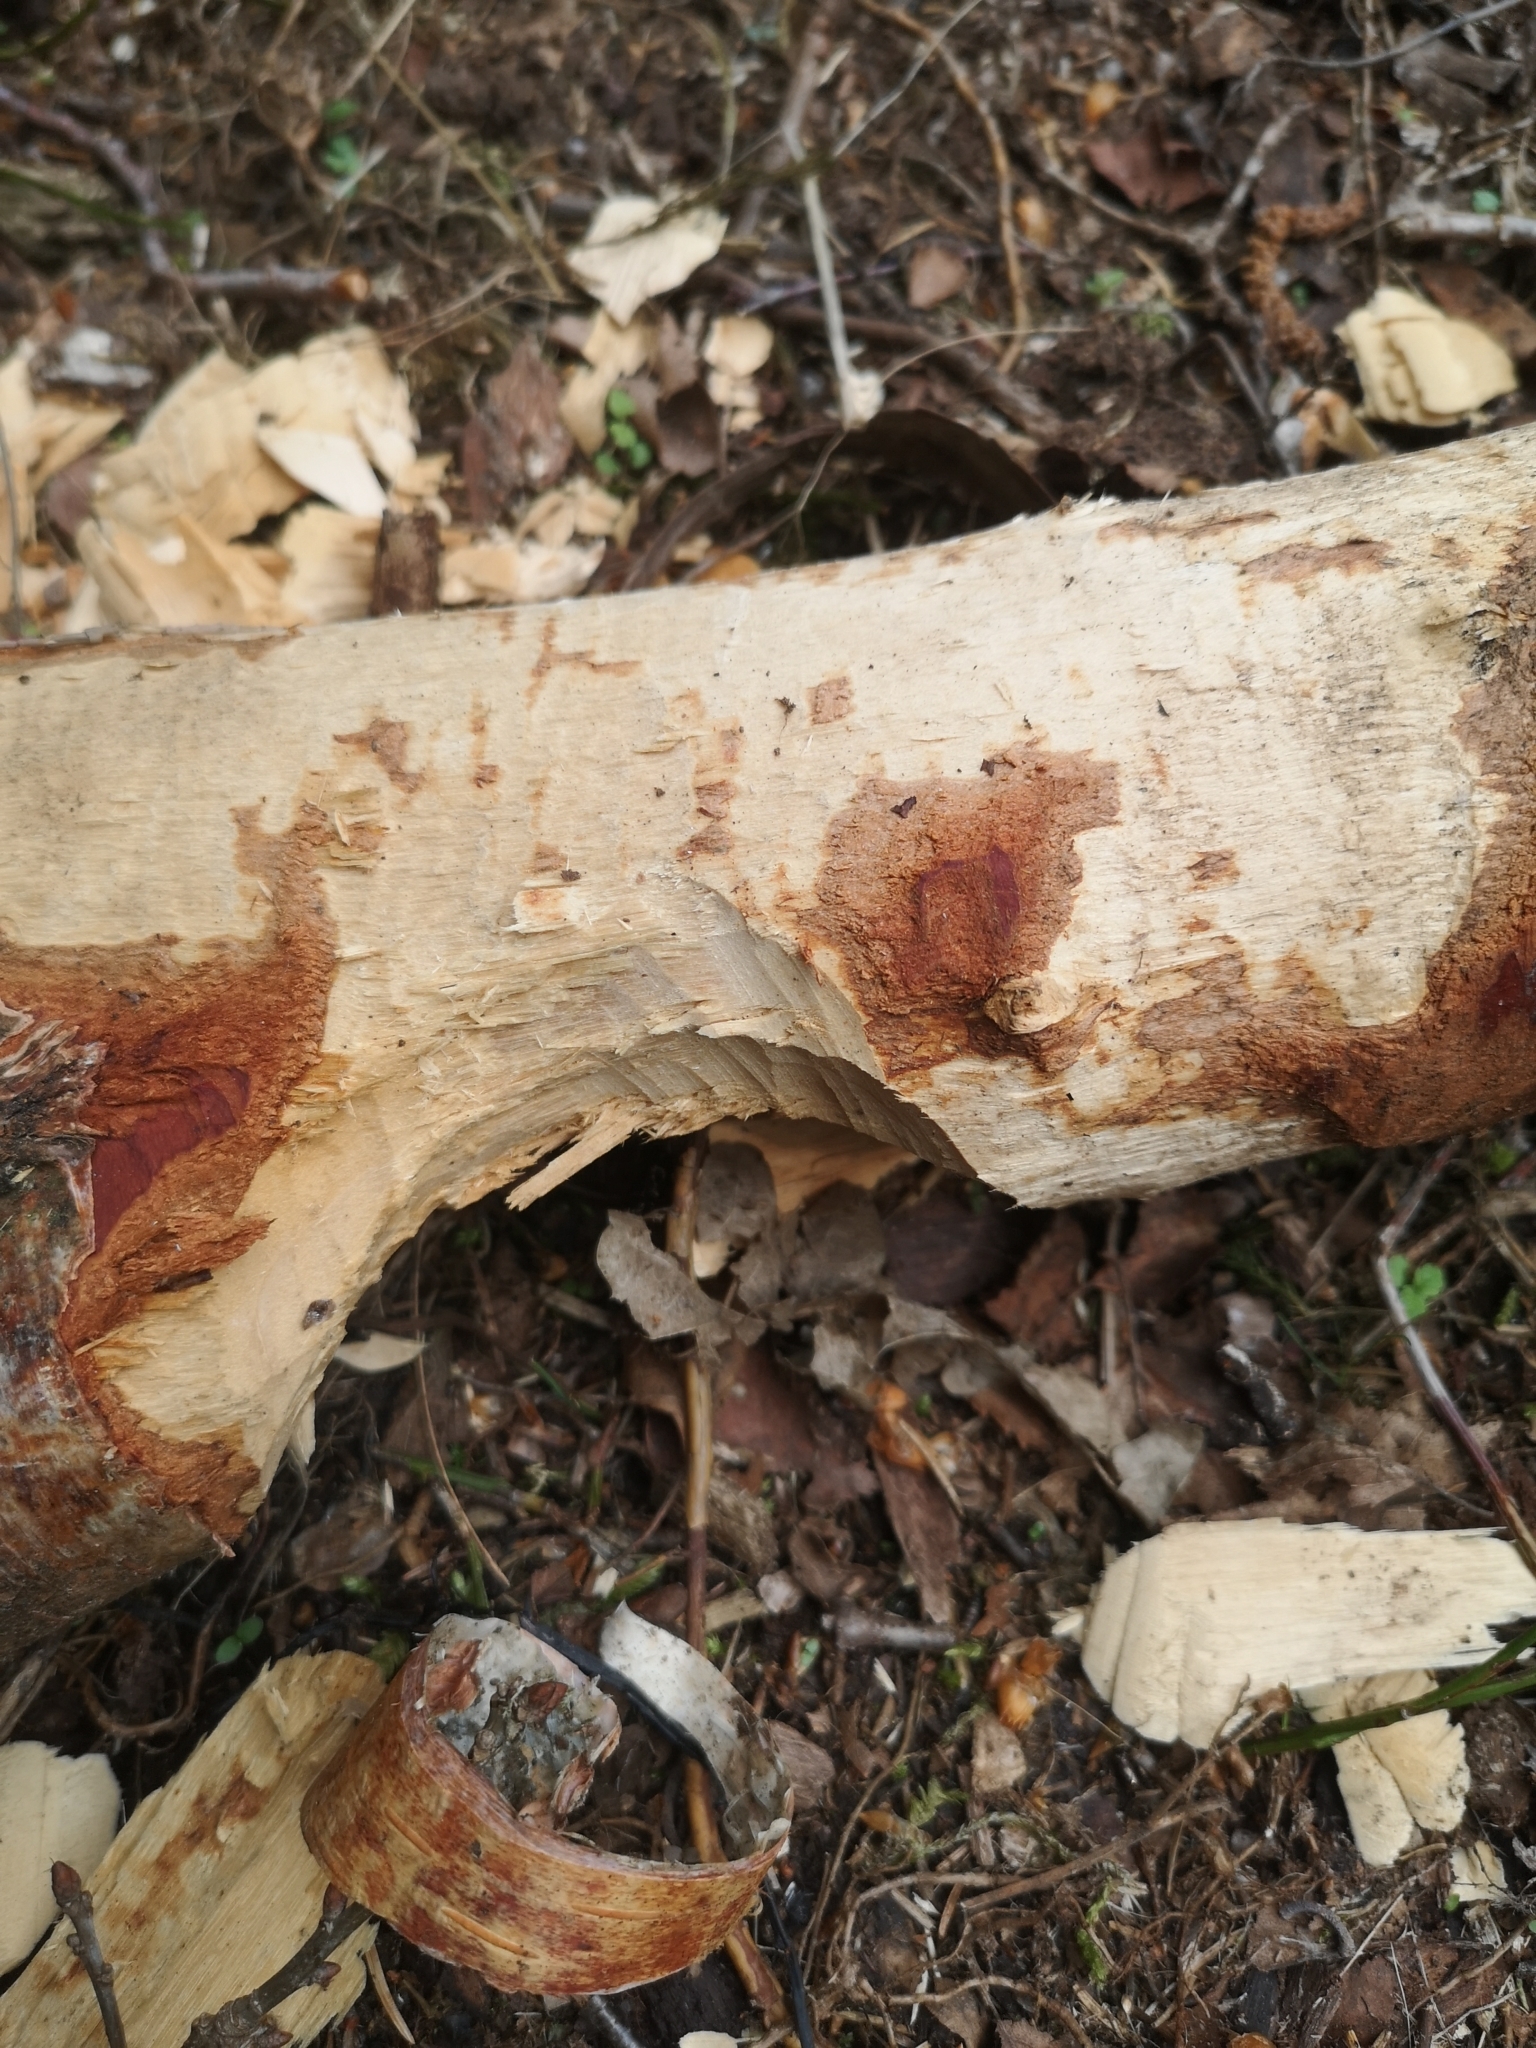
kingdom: Animalia
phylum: Chordata
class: Mammalia
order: Rodentia
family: Castoridae
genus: Castor
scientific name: Castor fiber
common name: Eurasian beaver
